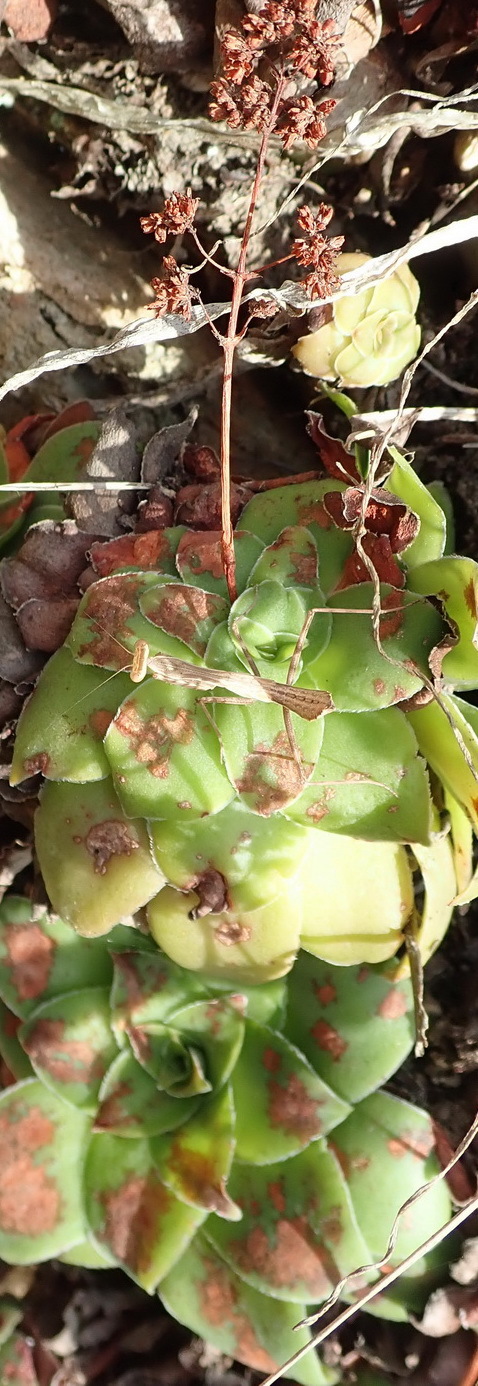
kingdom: Plantae
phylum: Tracheophyta
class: Magnoliopsida
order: Saxifragales
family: Crassulaceae
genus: Crassula
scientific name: Crassula orbicularis
